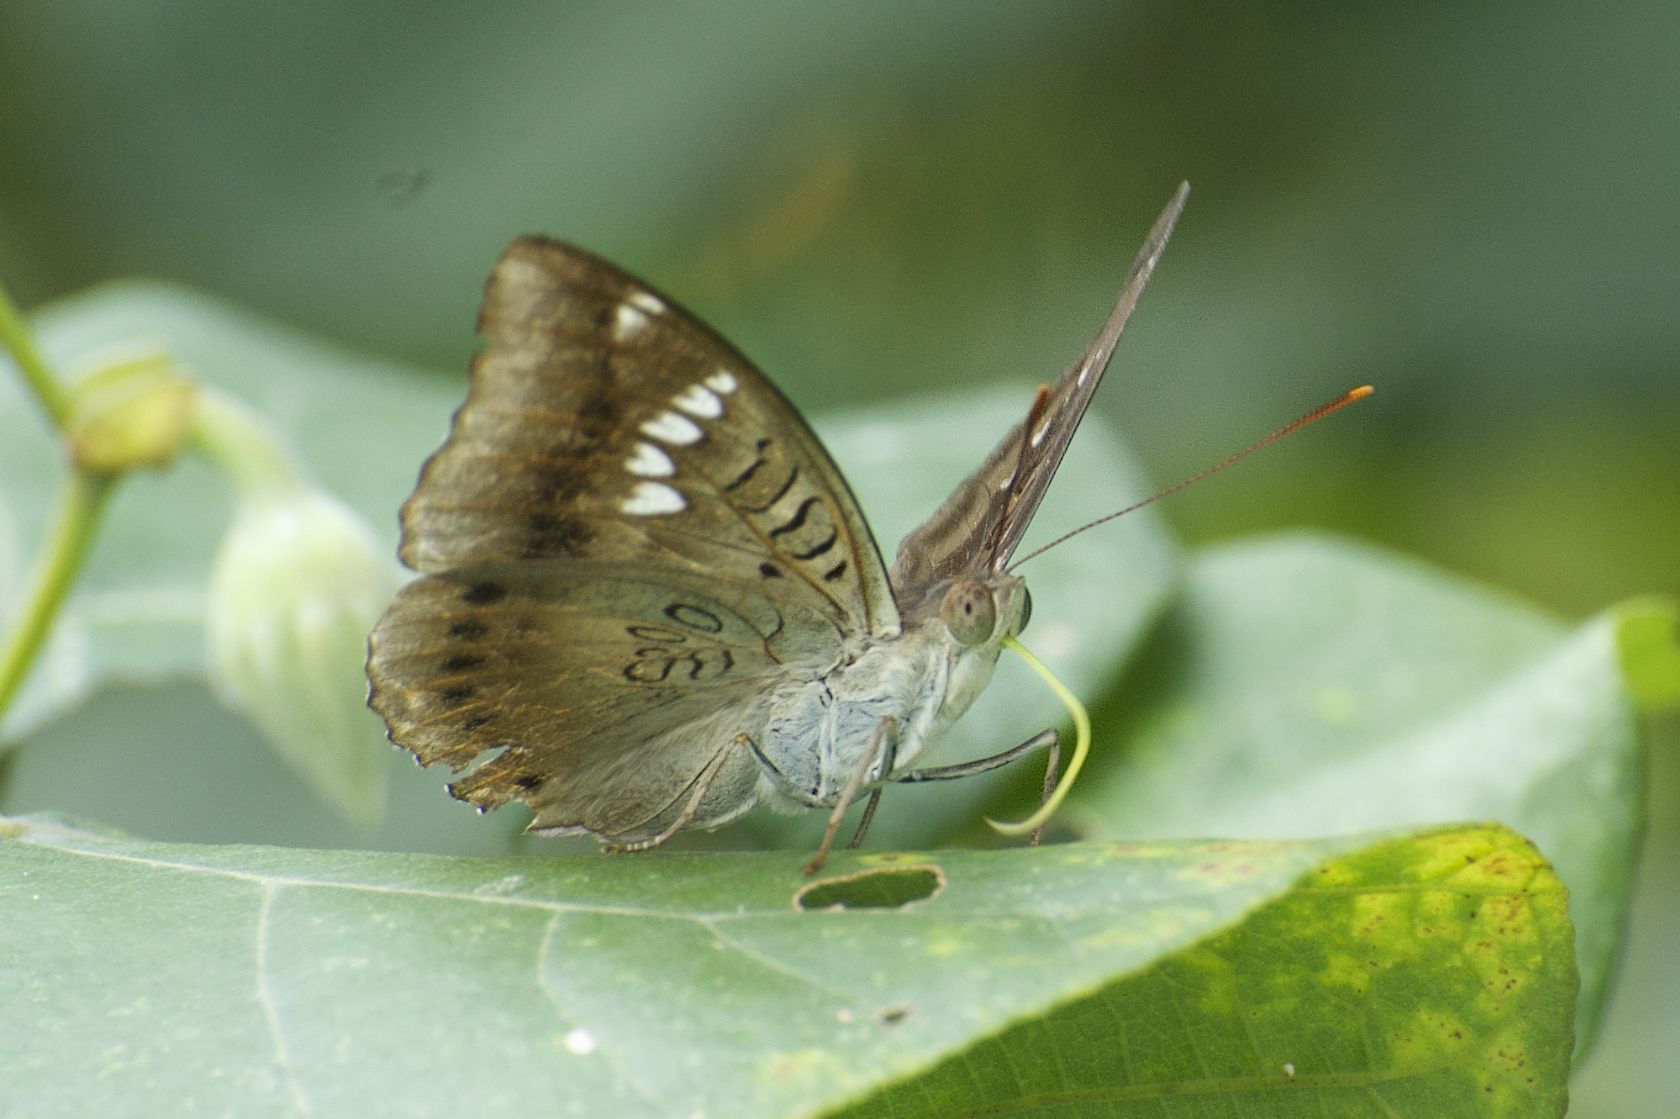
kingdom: Animalia
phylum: Arthropoda
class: Insecta
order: Lepidoptera
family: Nymphalidae
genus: Euthalia
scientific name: Euthalia aconthea
